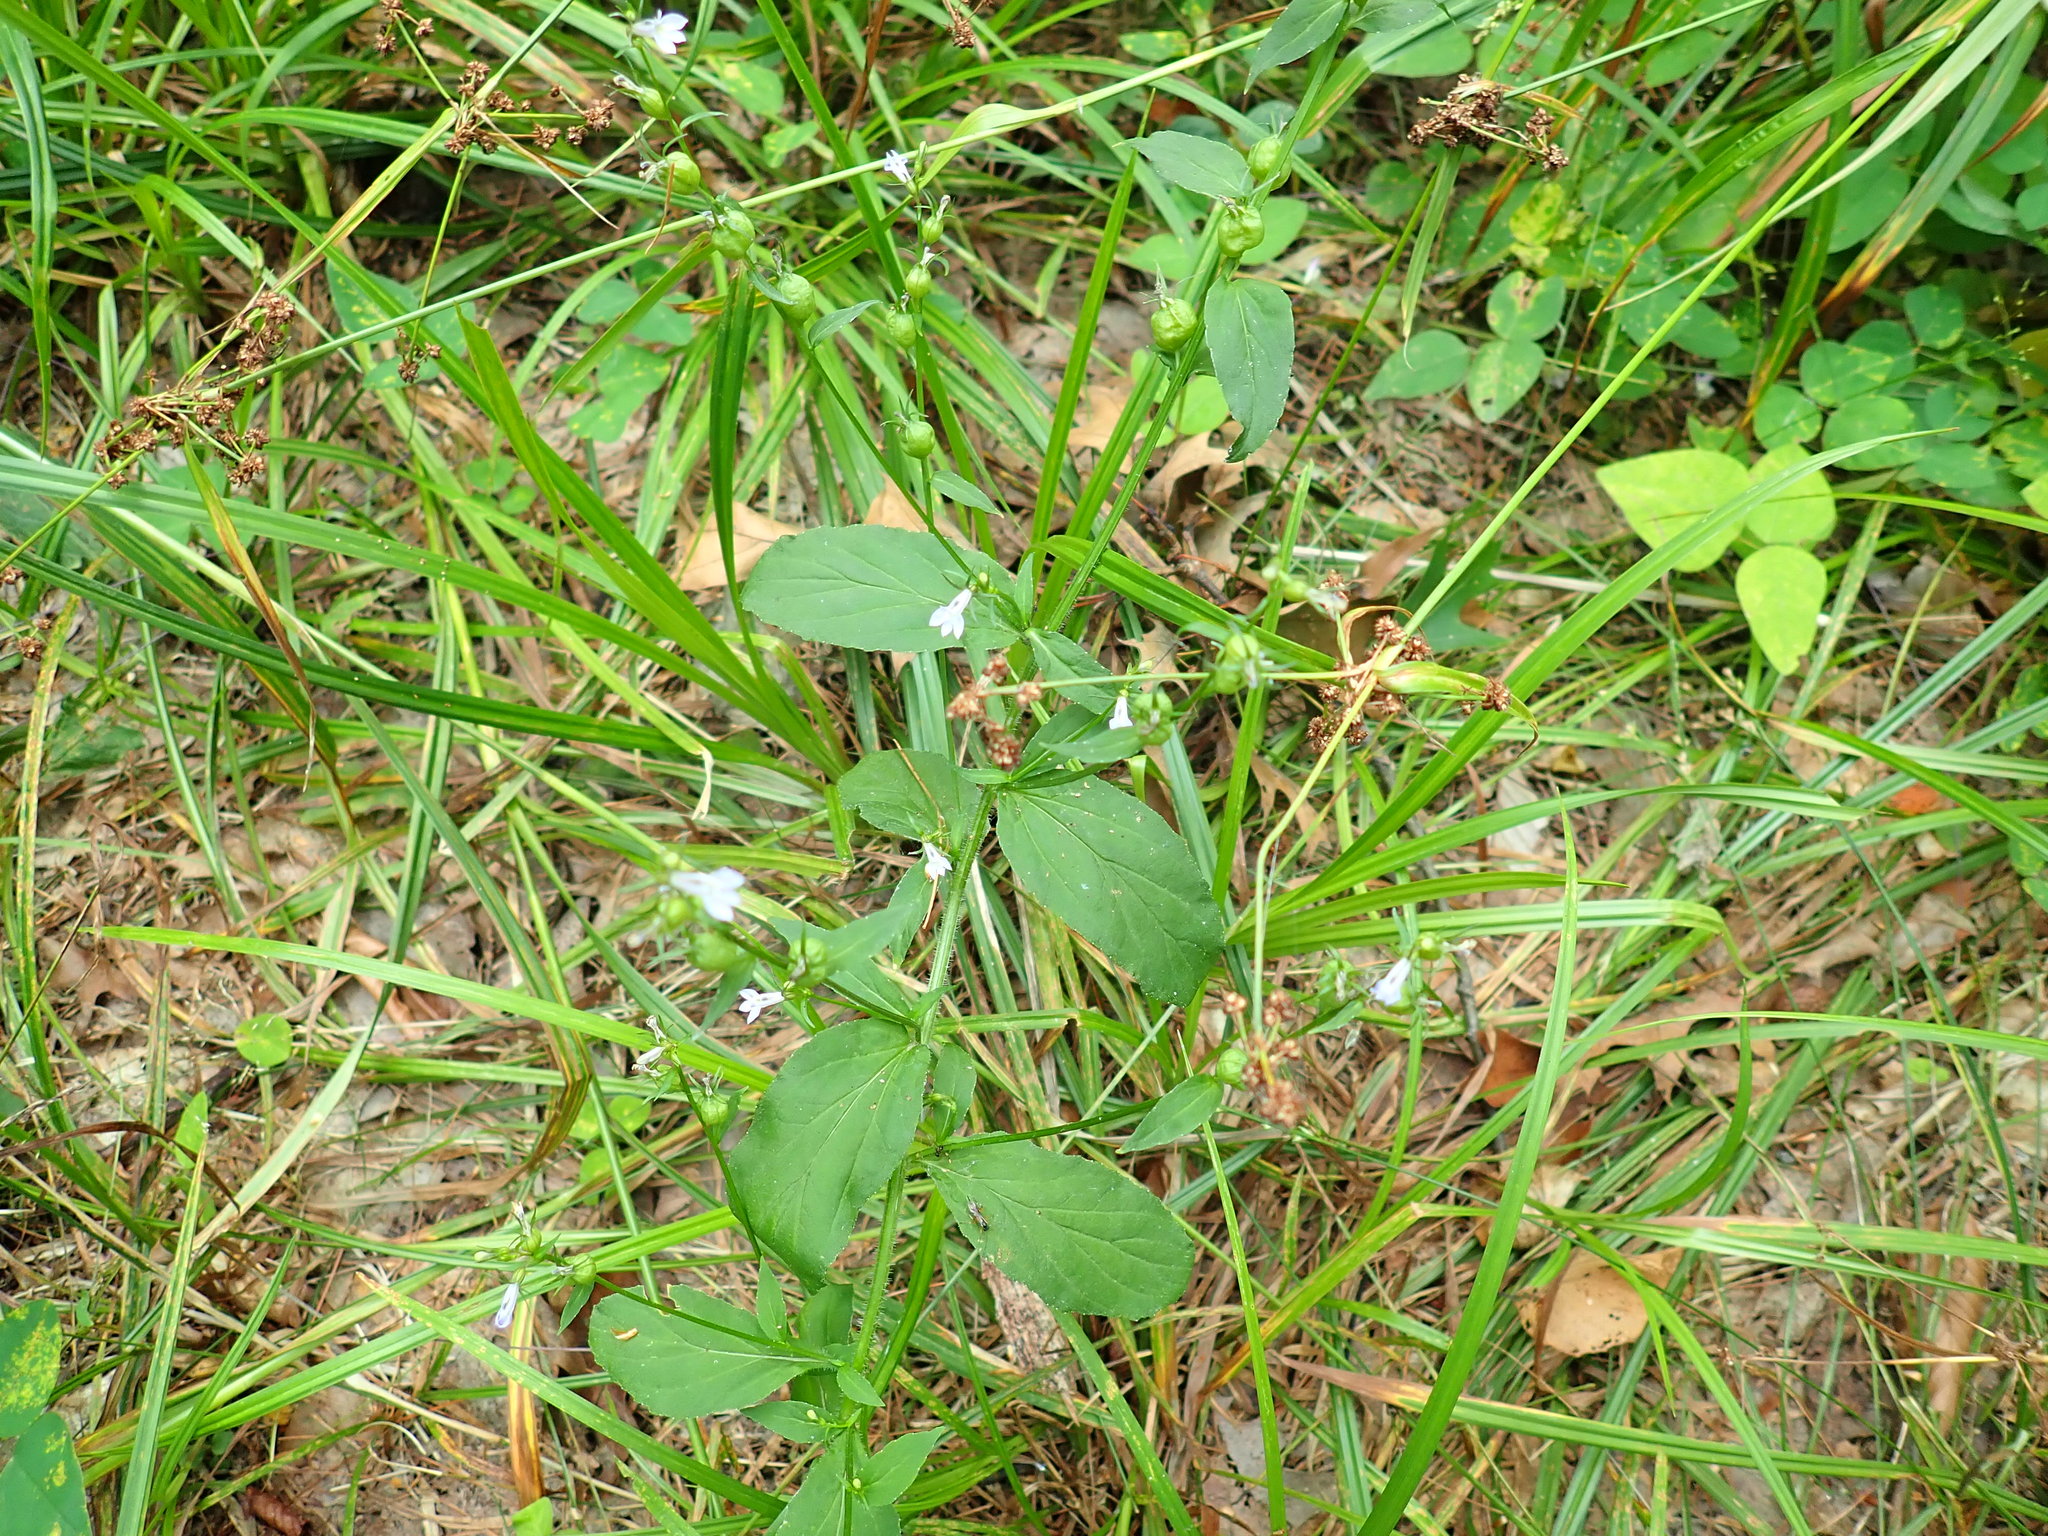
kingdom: Plantae
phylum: Tracheophyta
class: Magnoliopsida
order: Asterales
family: Campanulaceae
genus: Lobelia
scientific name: Lobelia inflata
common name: Indian tobacco
